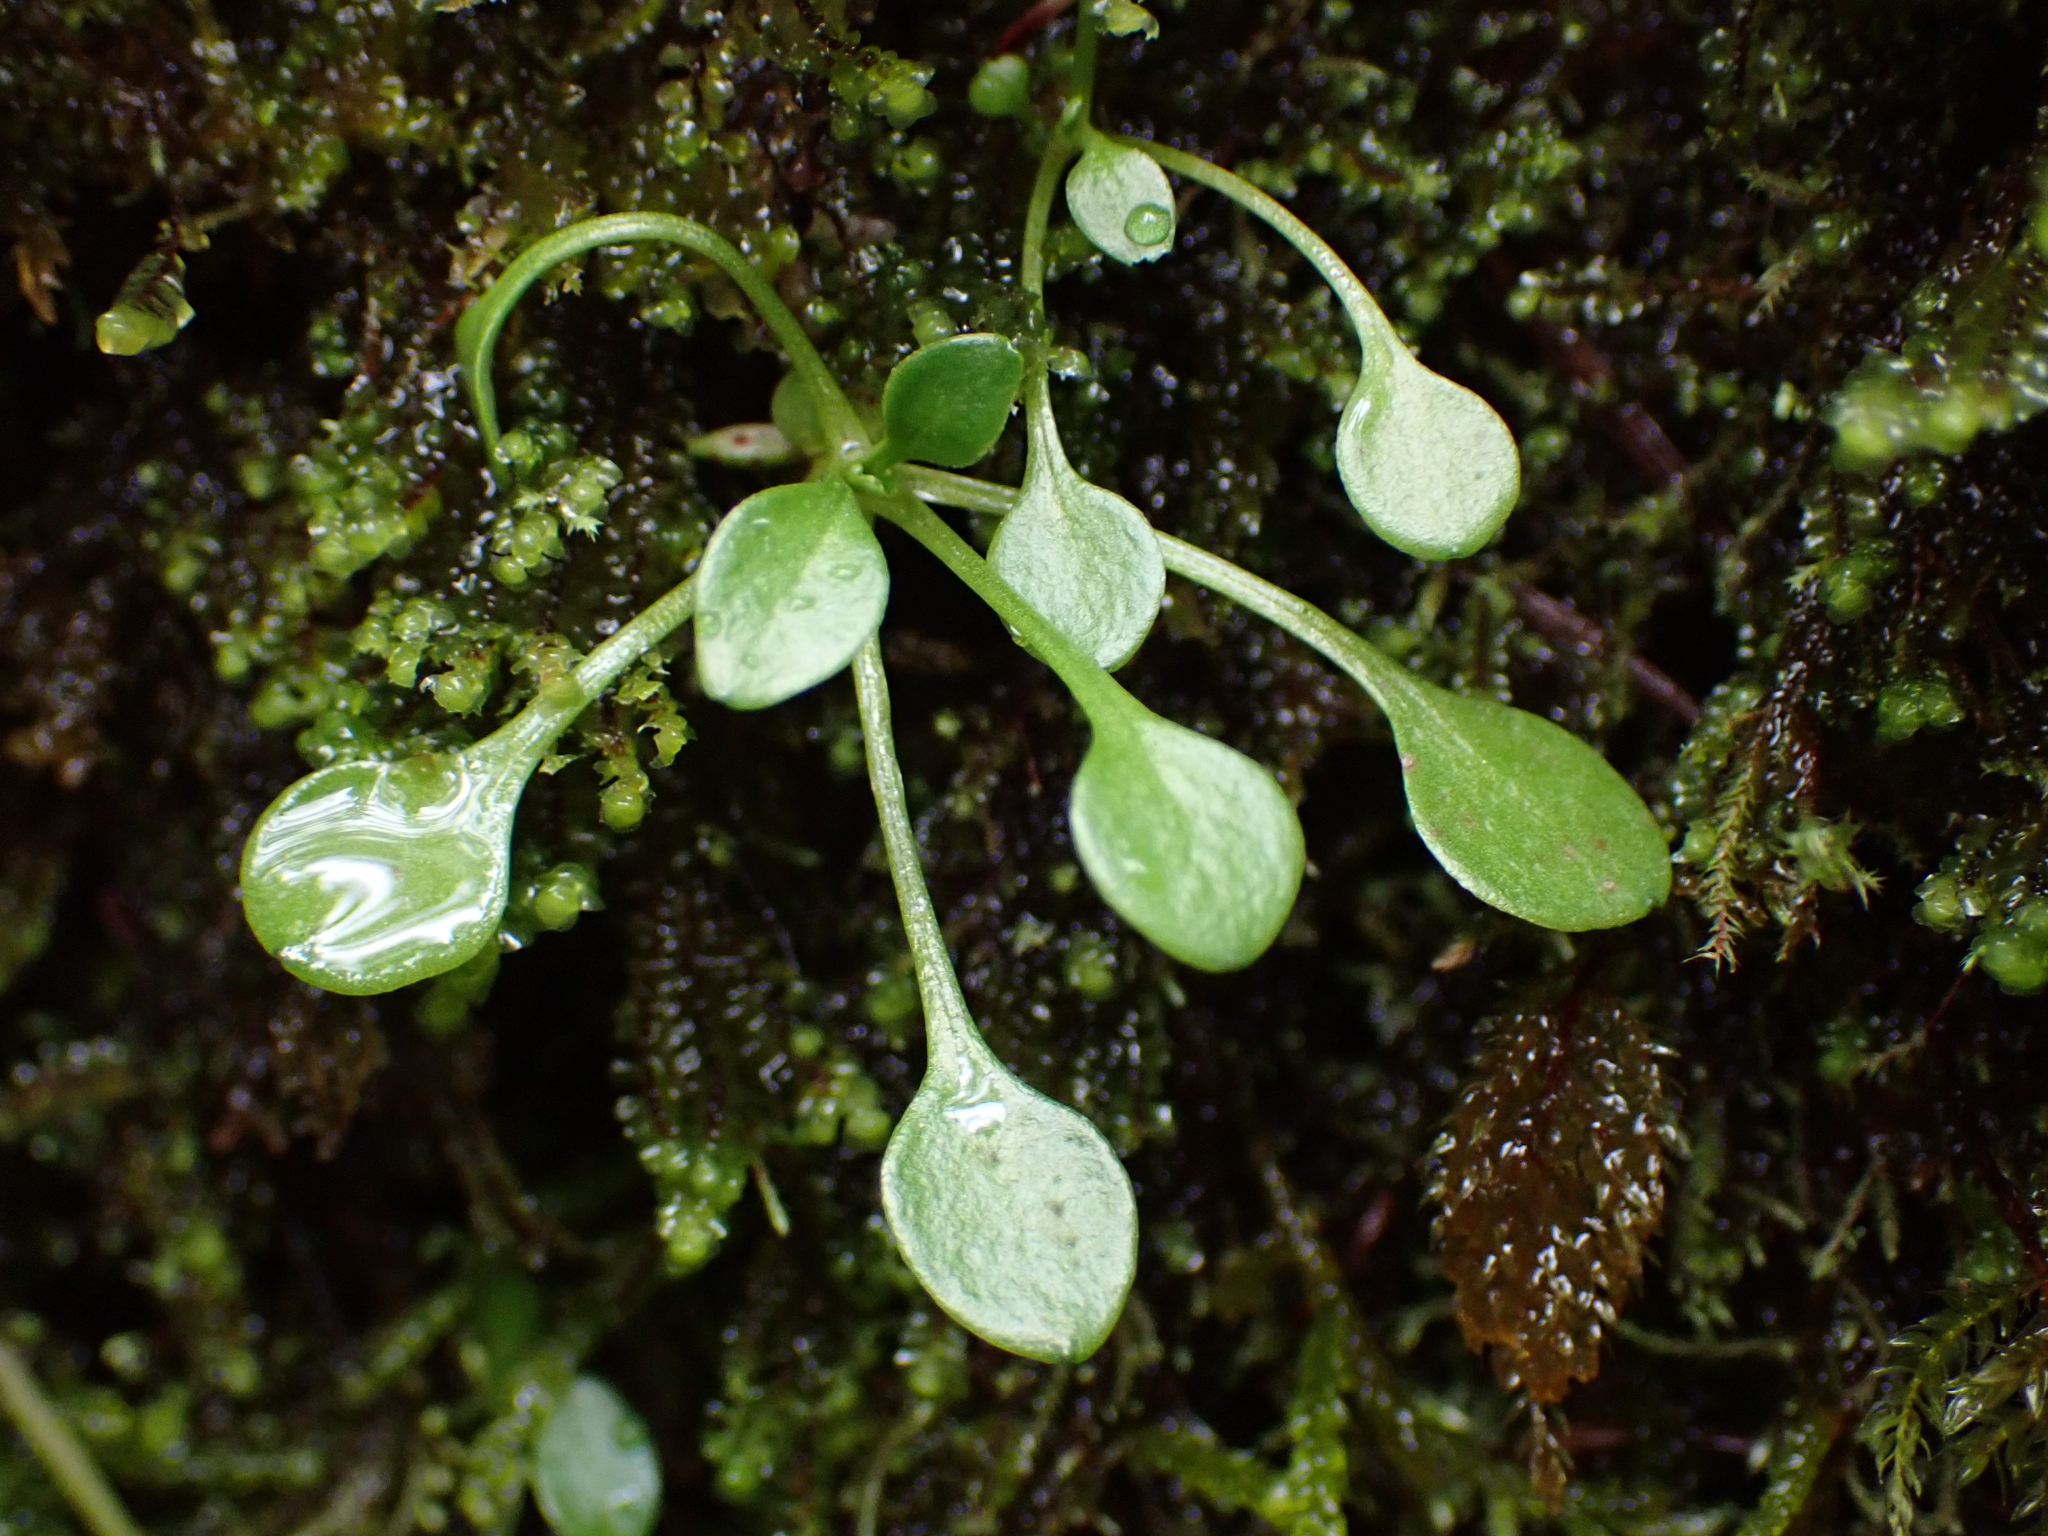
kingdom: Plantae
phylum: Tracheophyta
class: Magnoliopsida
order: Caryophyllales
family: Montiaceae
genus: Montia
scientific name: Montia parvifolia
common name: Small-leaved blinks
